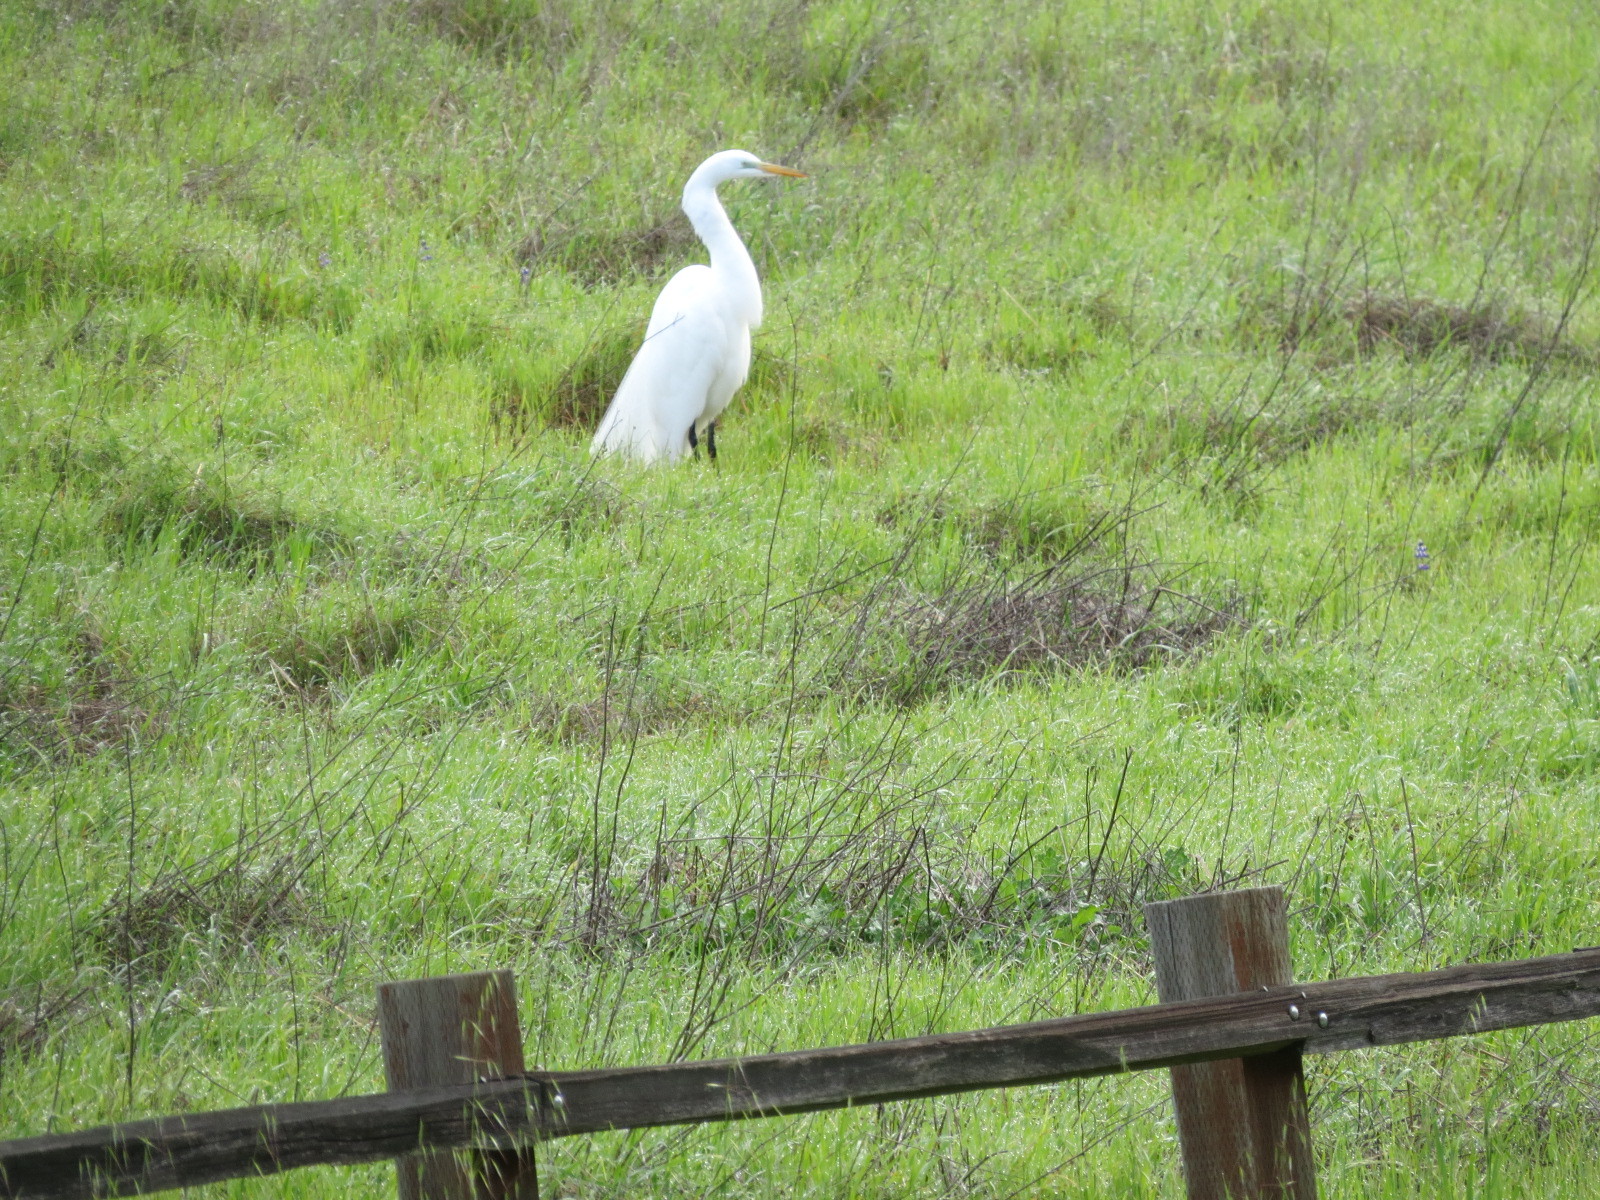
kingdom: Animalia
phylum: Chordata
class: Aves
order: Pelecaniformes
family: Ardeidae
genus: Ardea
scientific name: Ardea alba
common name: Great egret
